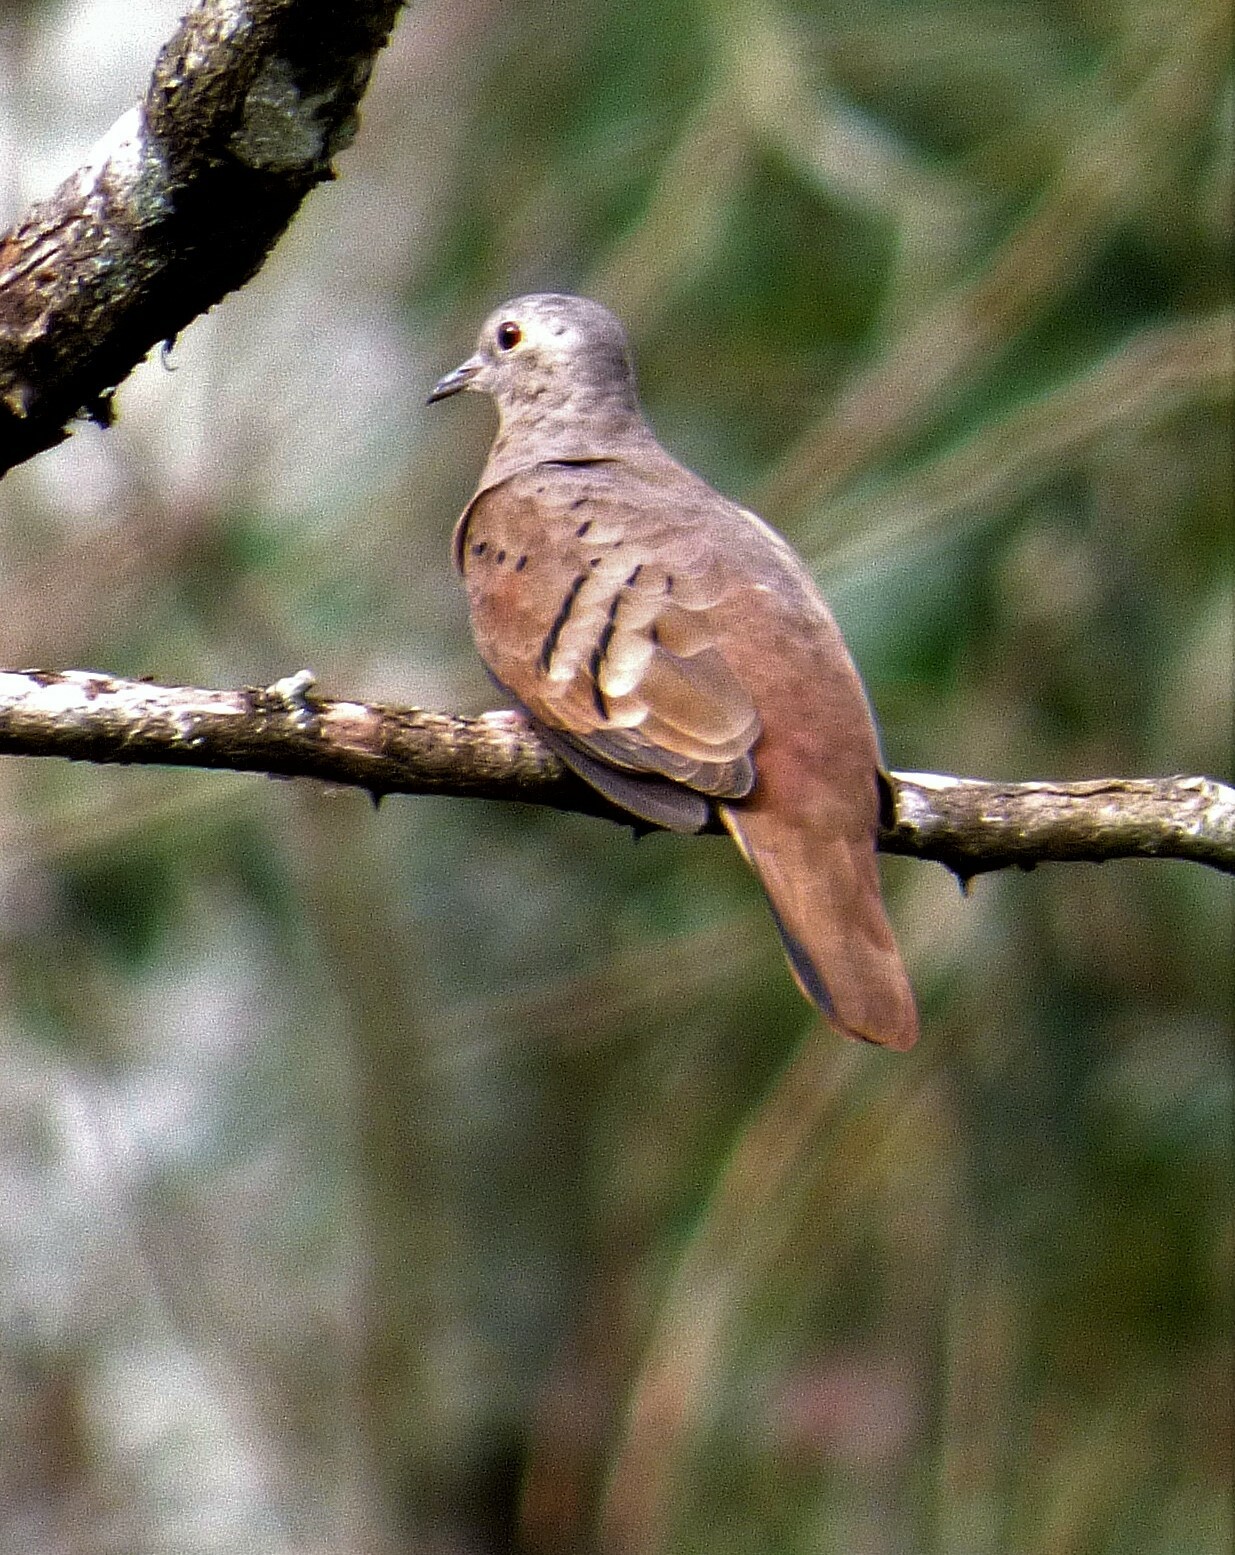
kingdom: Animalia
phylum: Chordata
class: Aves
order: Columbiformes
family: Columbidae
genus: Columbina
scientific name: Columbina talpacoti
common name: Ruddy ground dove
